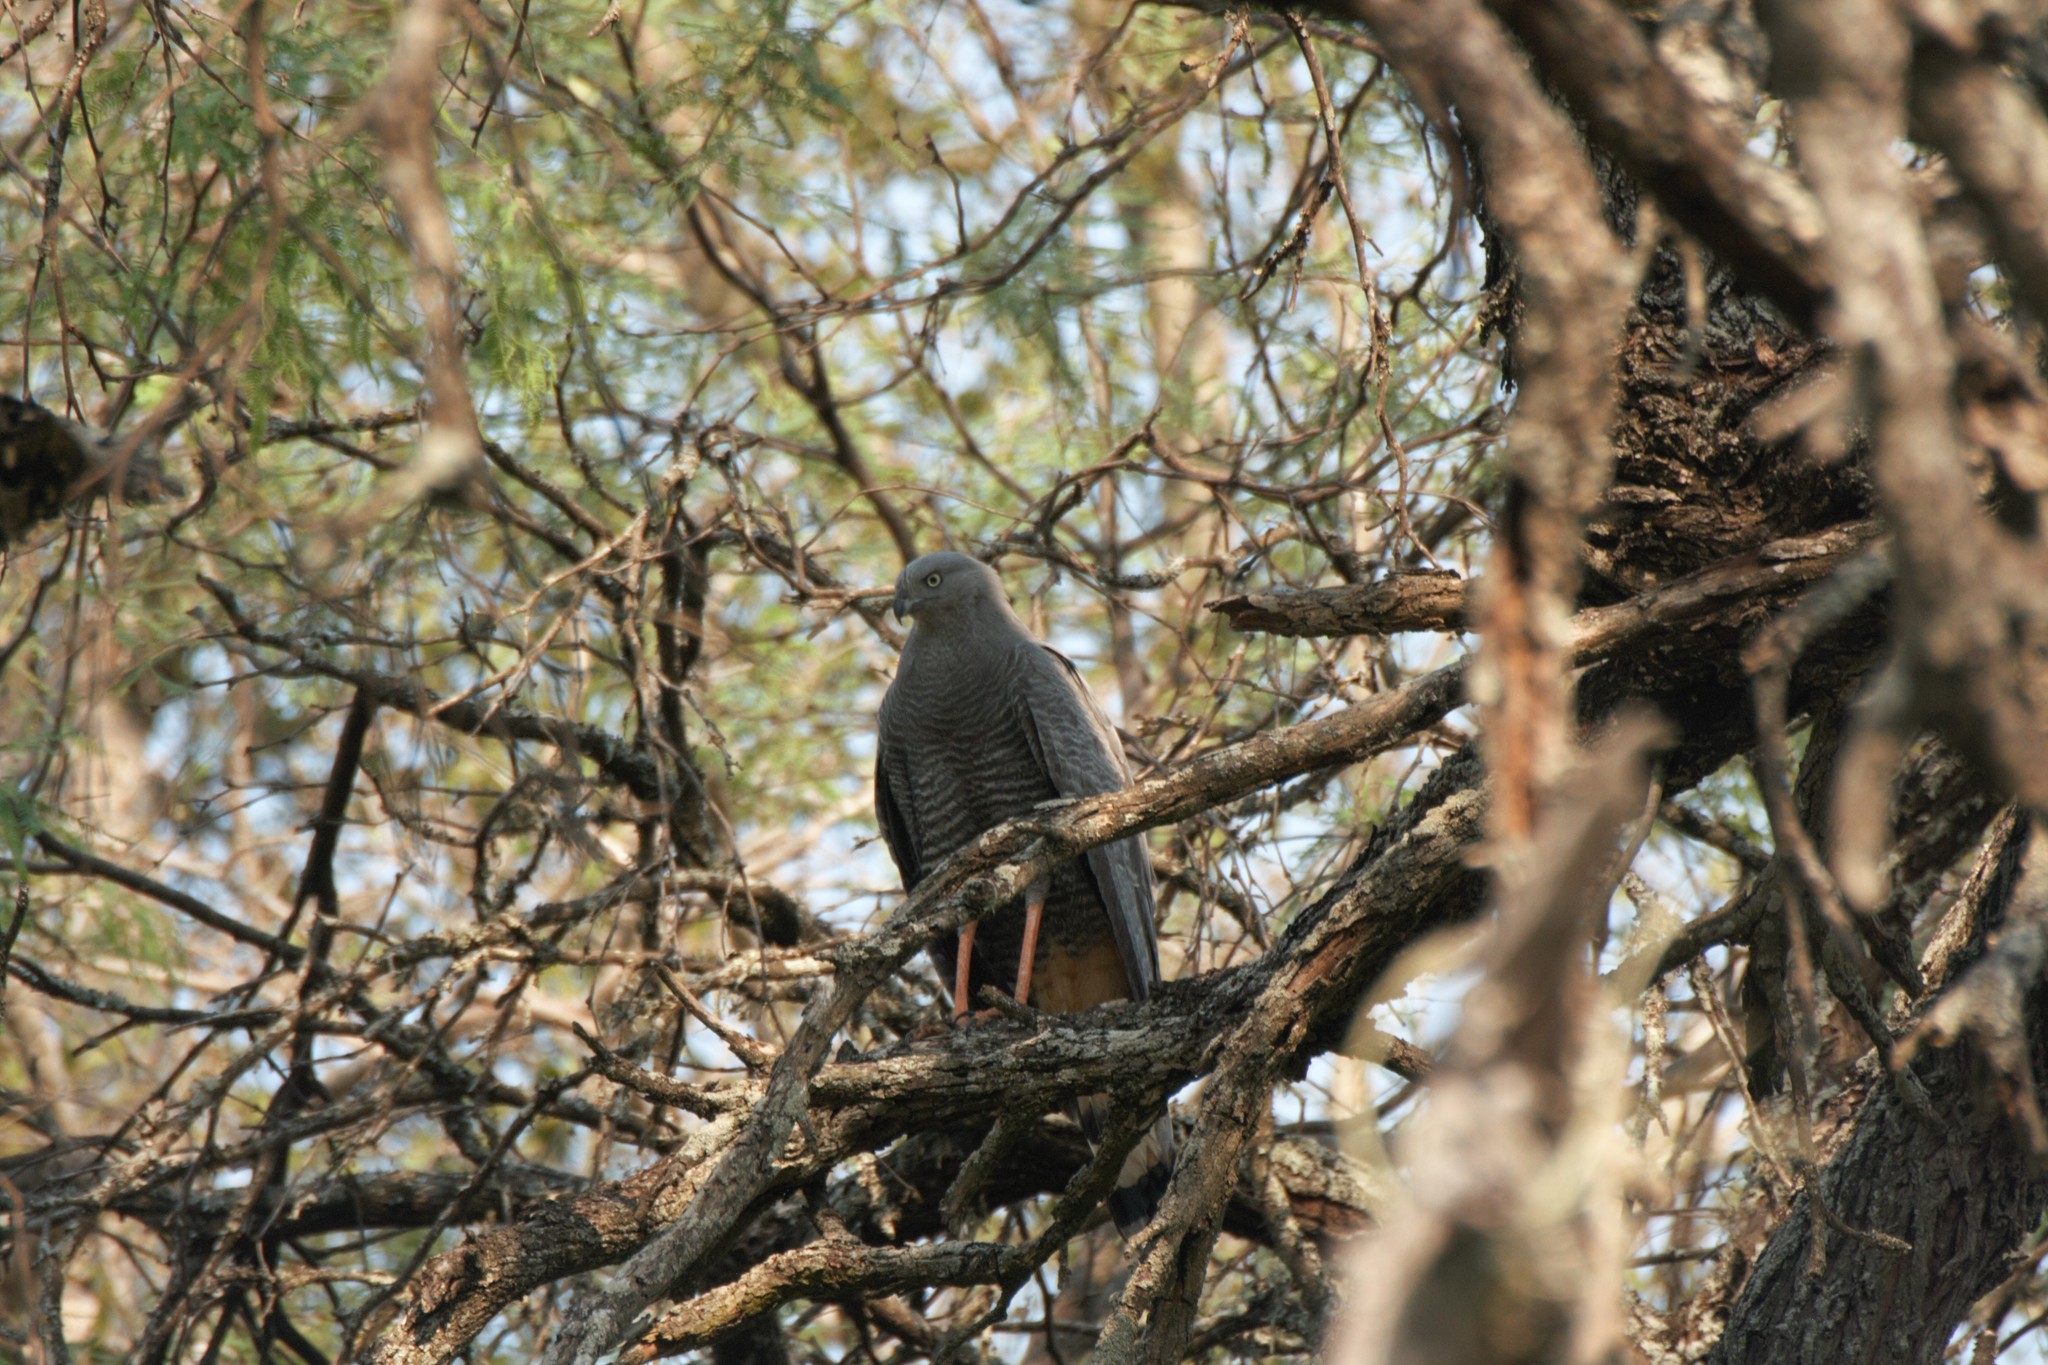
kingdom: Animalia
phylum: Chordata
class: Aves
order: Accipitriformes
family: Accipitridae
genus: Geranospiza
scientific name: Geranospiza caerulescens
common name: Crane hawk
